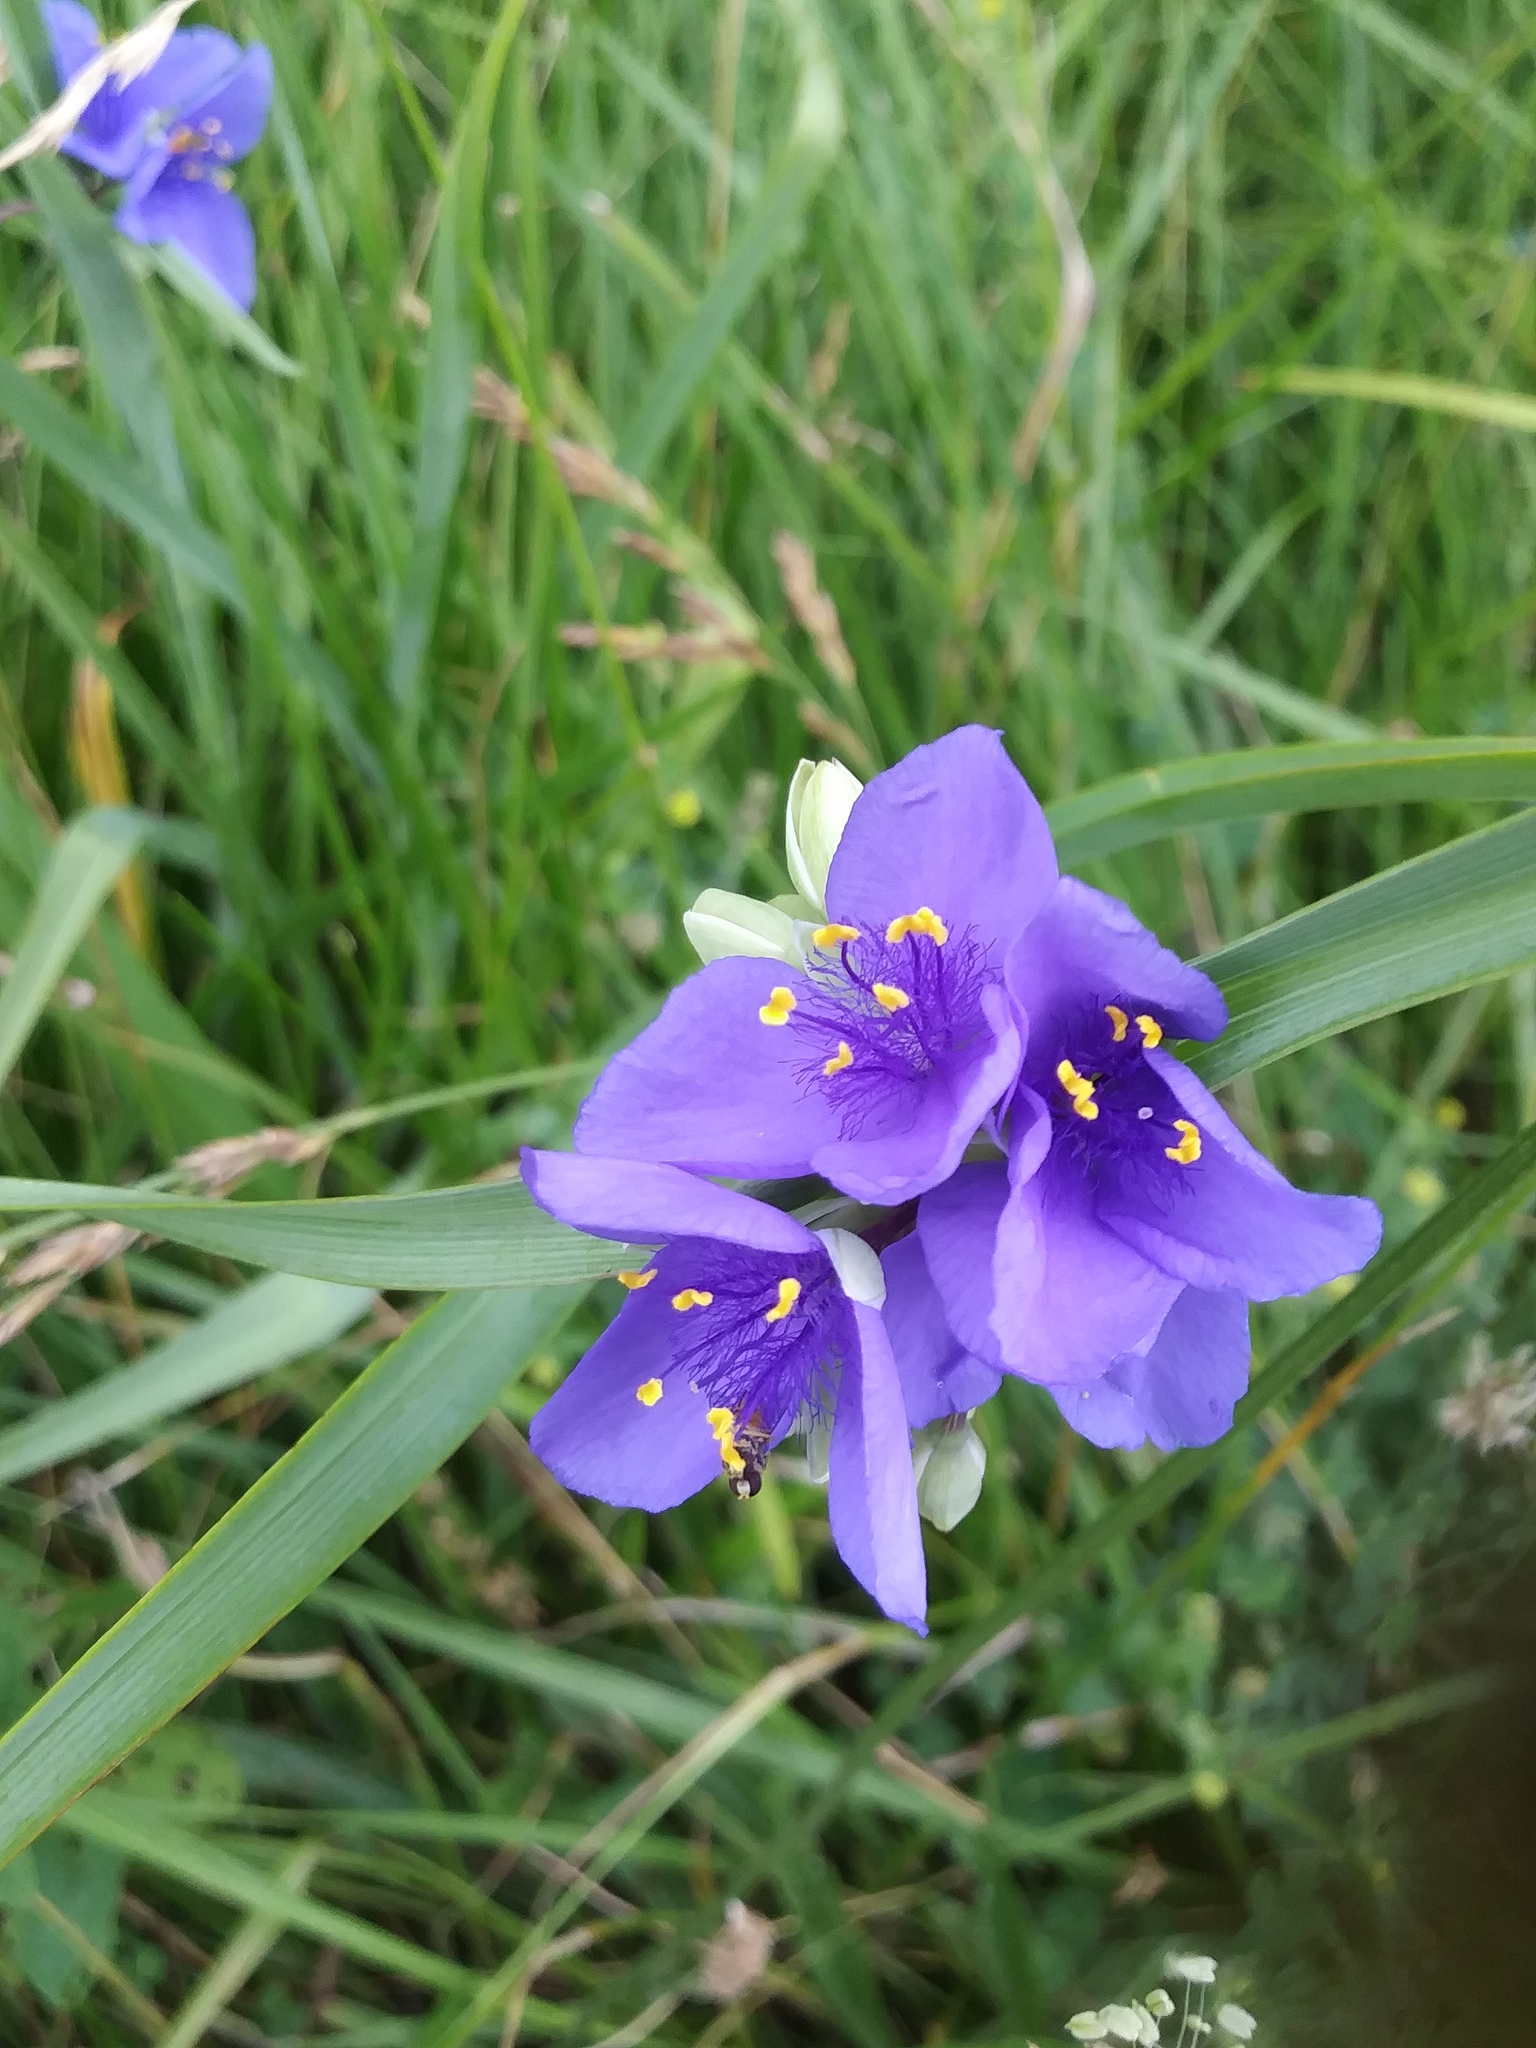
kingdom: Plantae
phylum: Tracheophyta
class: Liliopsida
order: Commelinales
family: Commelinaceae
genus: Tradescantia
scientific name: Tradescantia ohiensis
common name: Ohio spiderwort
